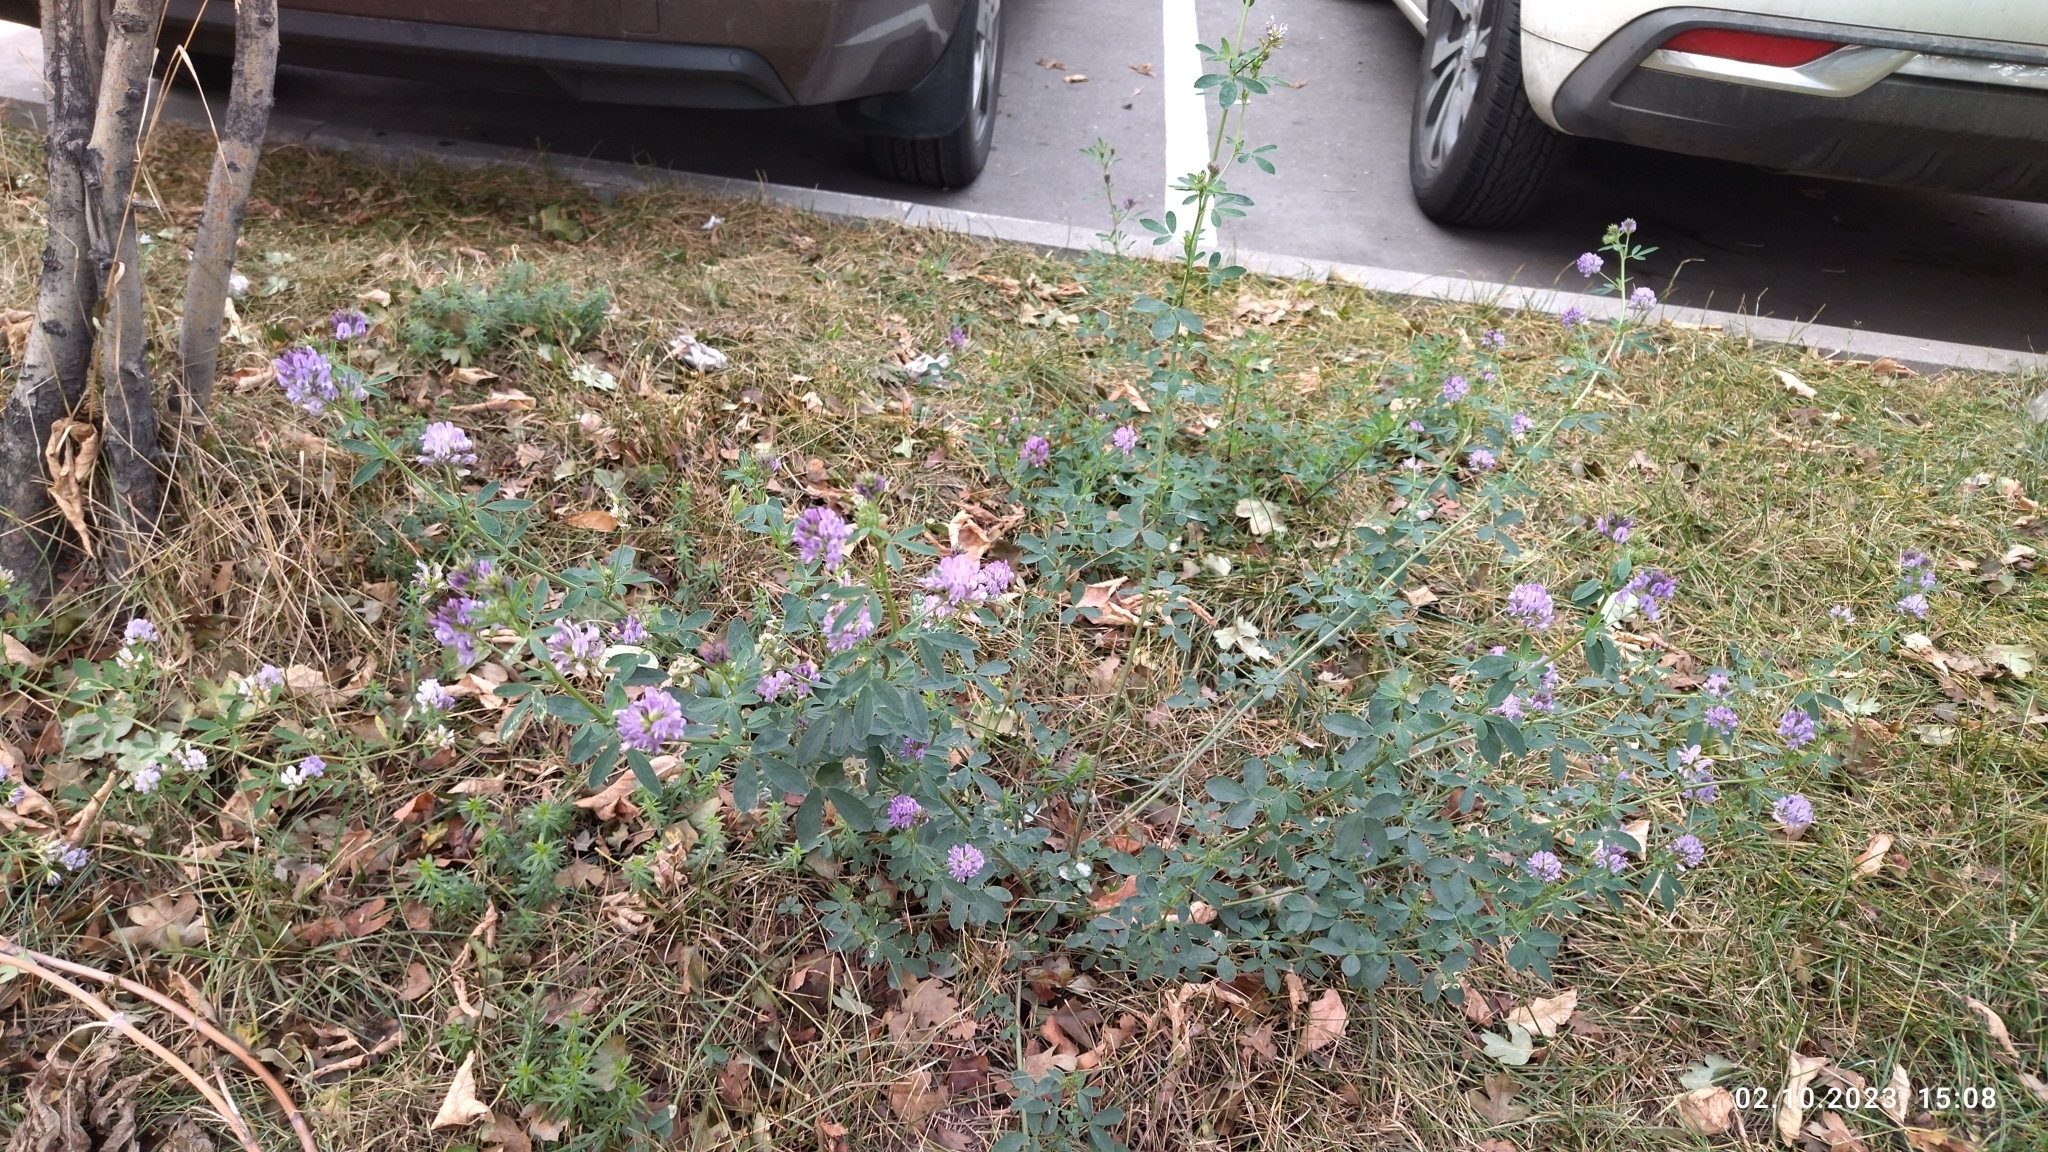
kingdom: Plantae
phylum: Tracheophyta
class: Magnoliopsida
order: Fabales
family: Fabaceae
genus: Medicago
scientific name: Medicago varia
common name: Sand lucerne
